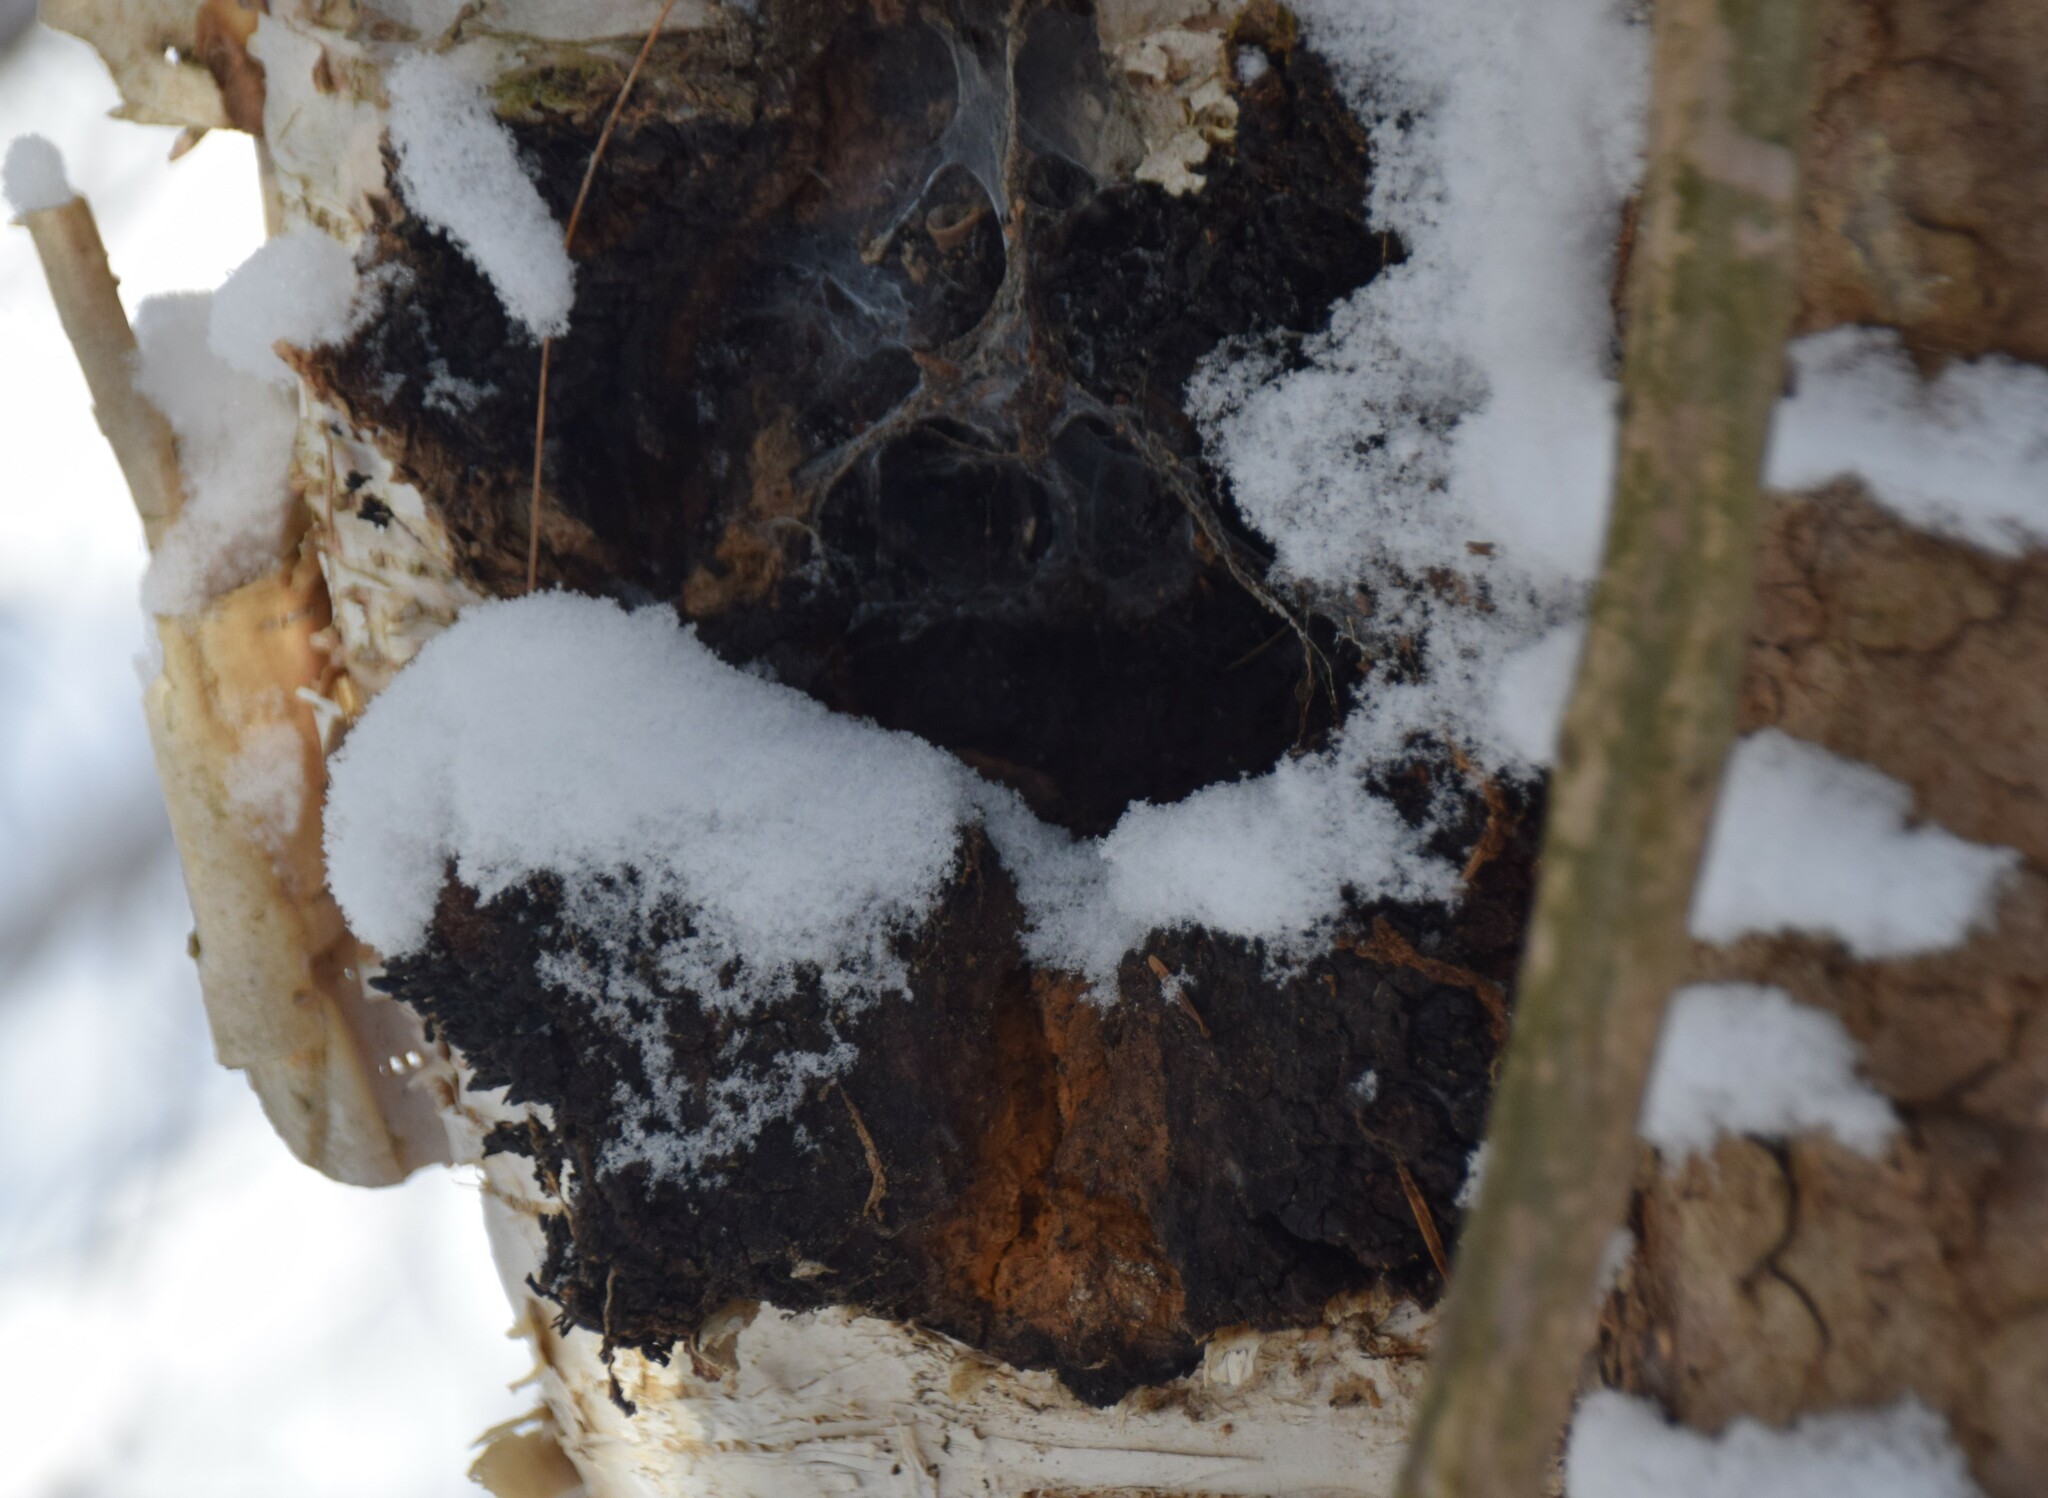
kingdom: Fungi
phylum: Basidiomycota
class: Agaricomycetes
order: Hymenochaetales
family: Hymenochaetaceae
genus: Inonotus
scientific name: Inonotus obliquus
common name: Chaga
